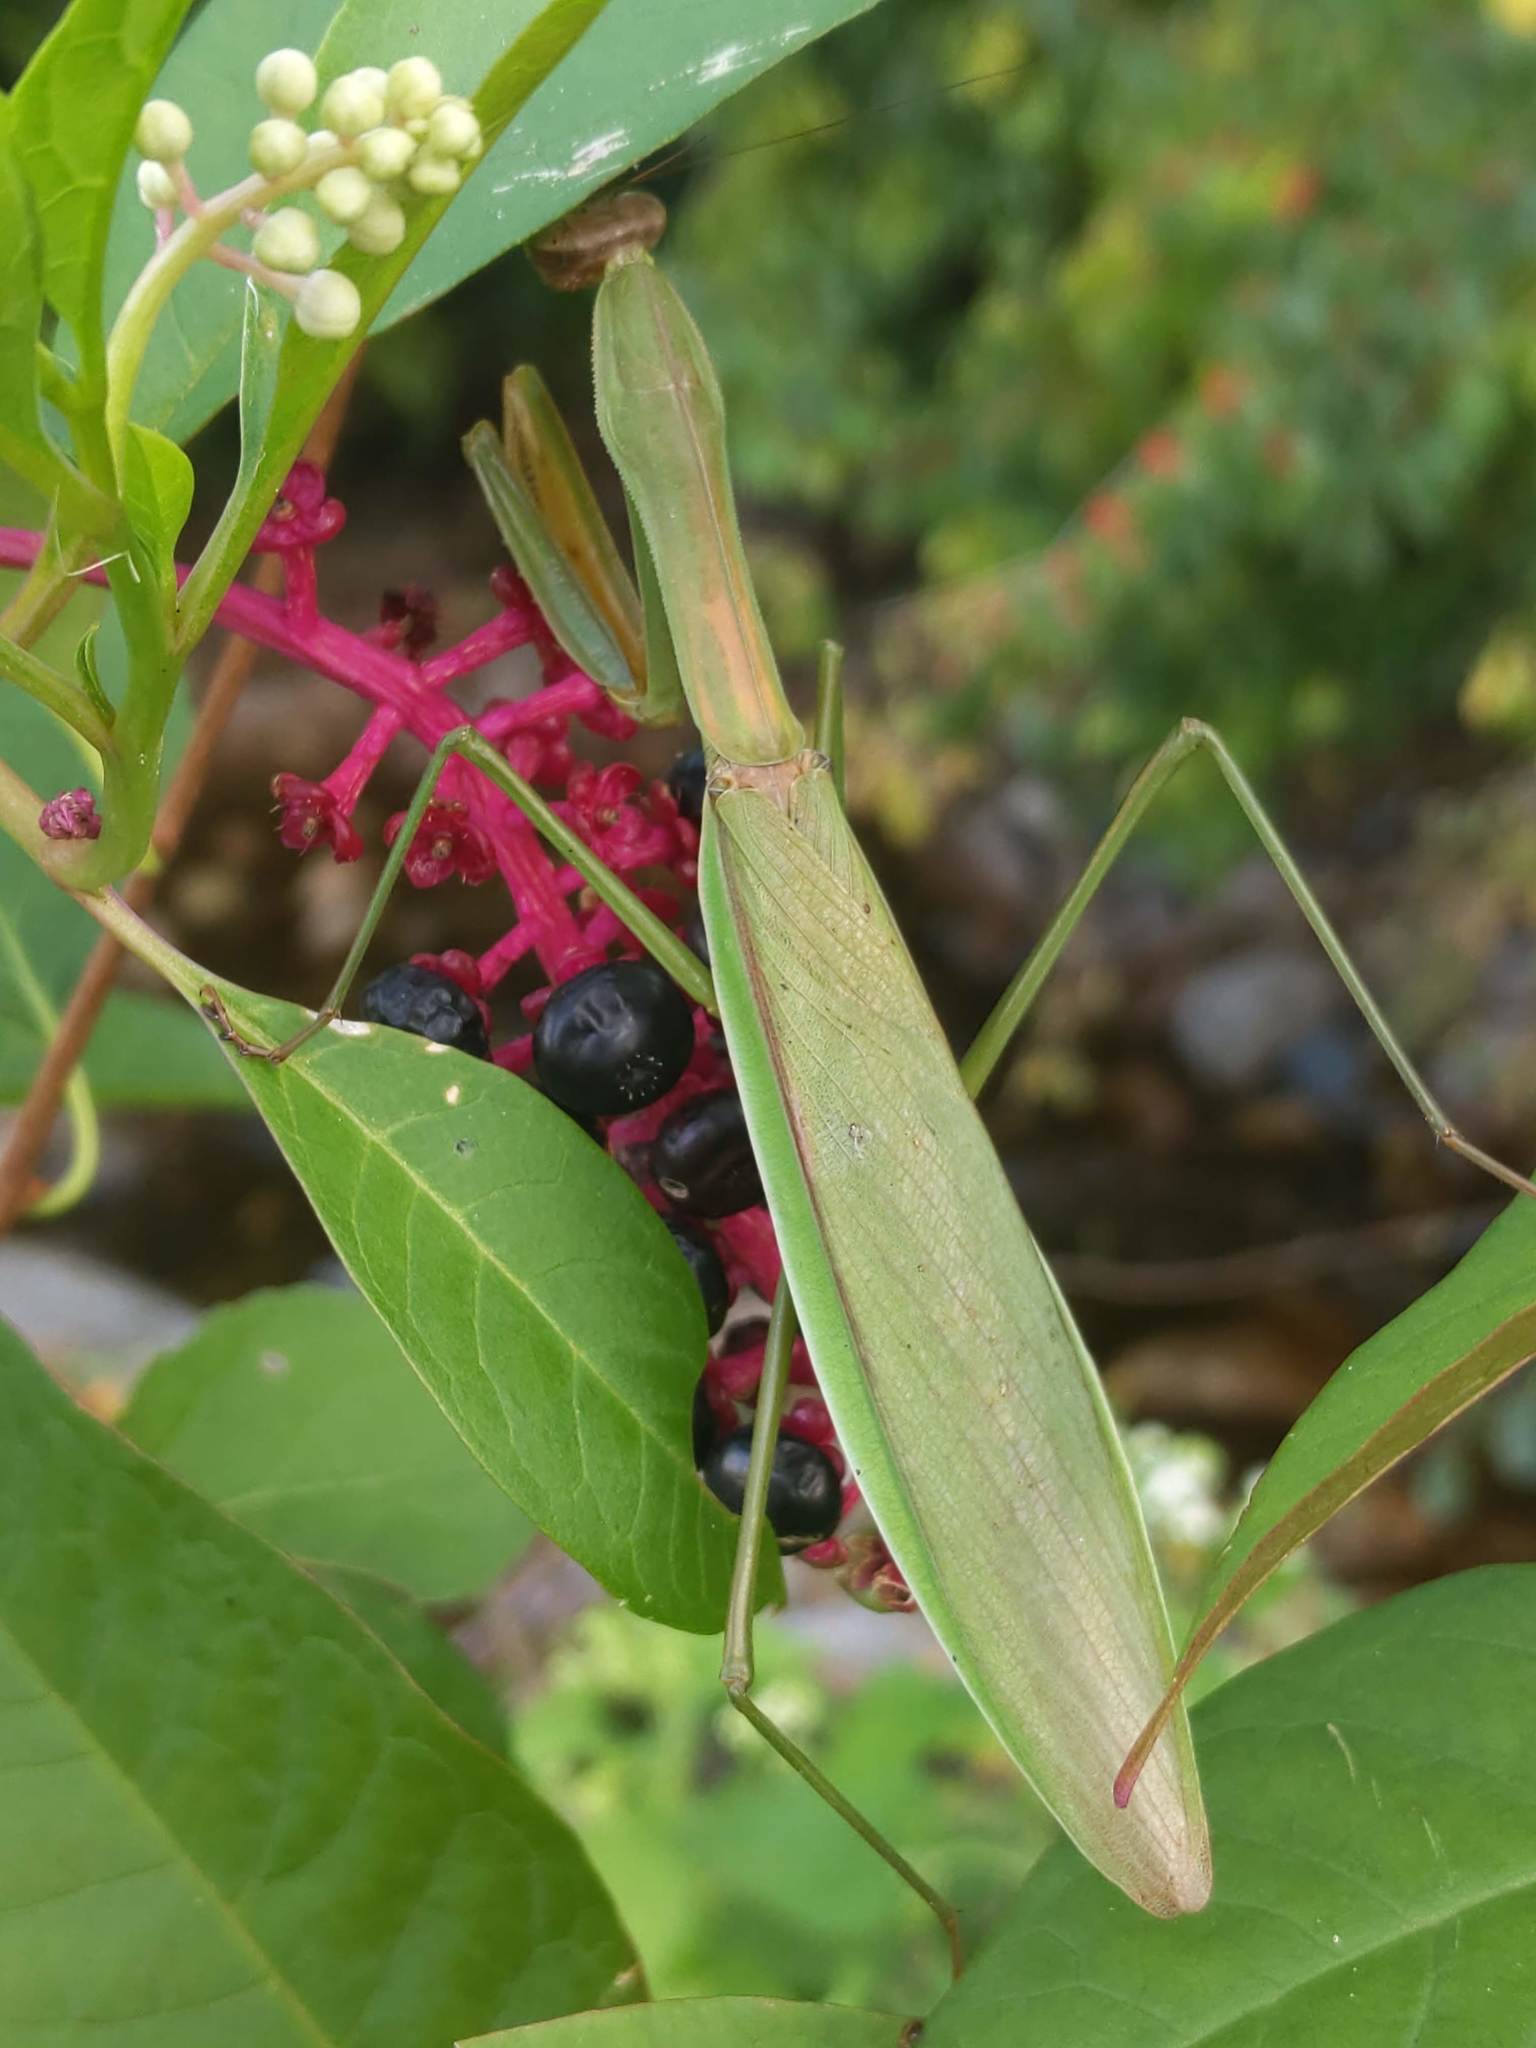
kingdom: Animalia
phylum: Arthropoda
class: Insecta
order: Mantodea
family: Mantidae
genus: Tenodera
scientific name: Tenodera sinensis
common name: Chinese mantis
